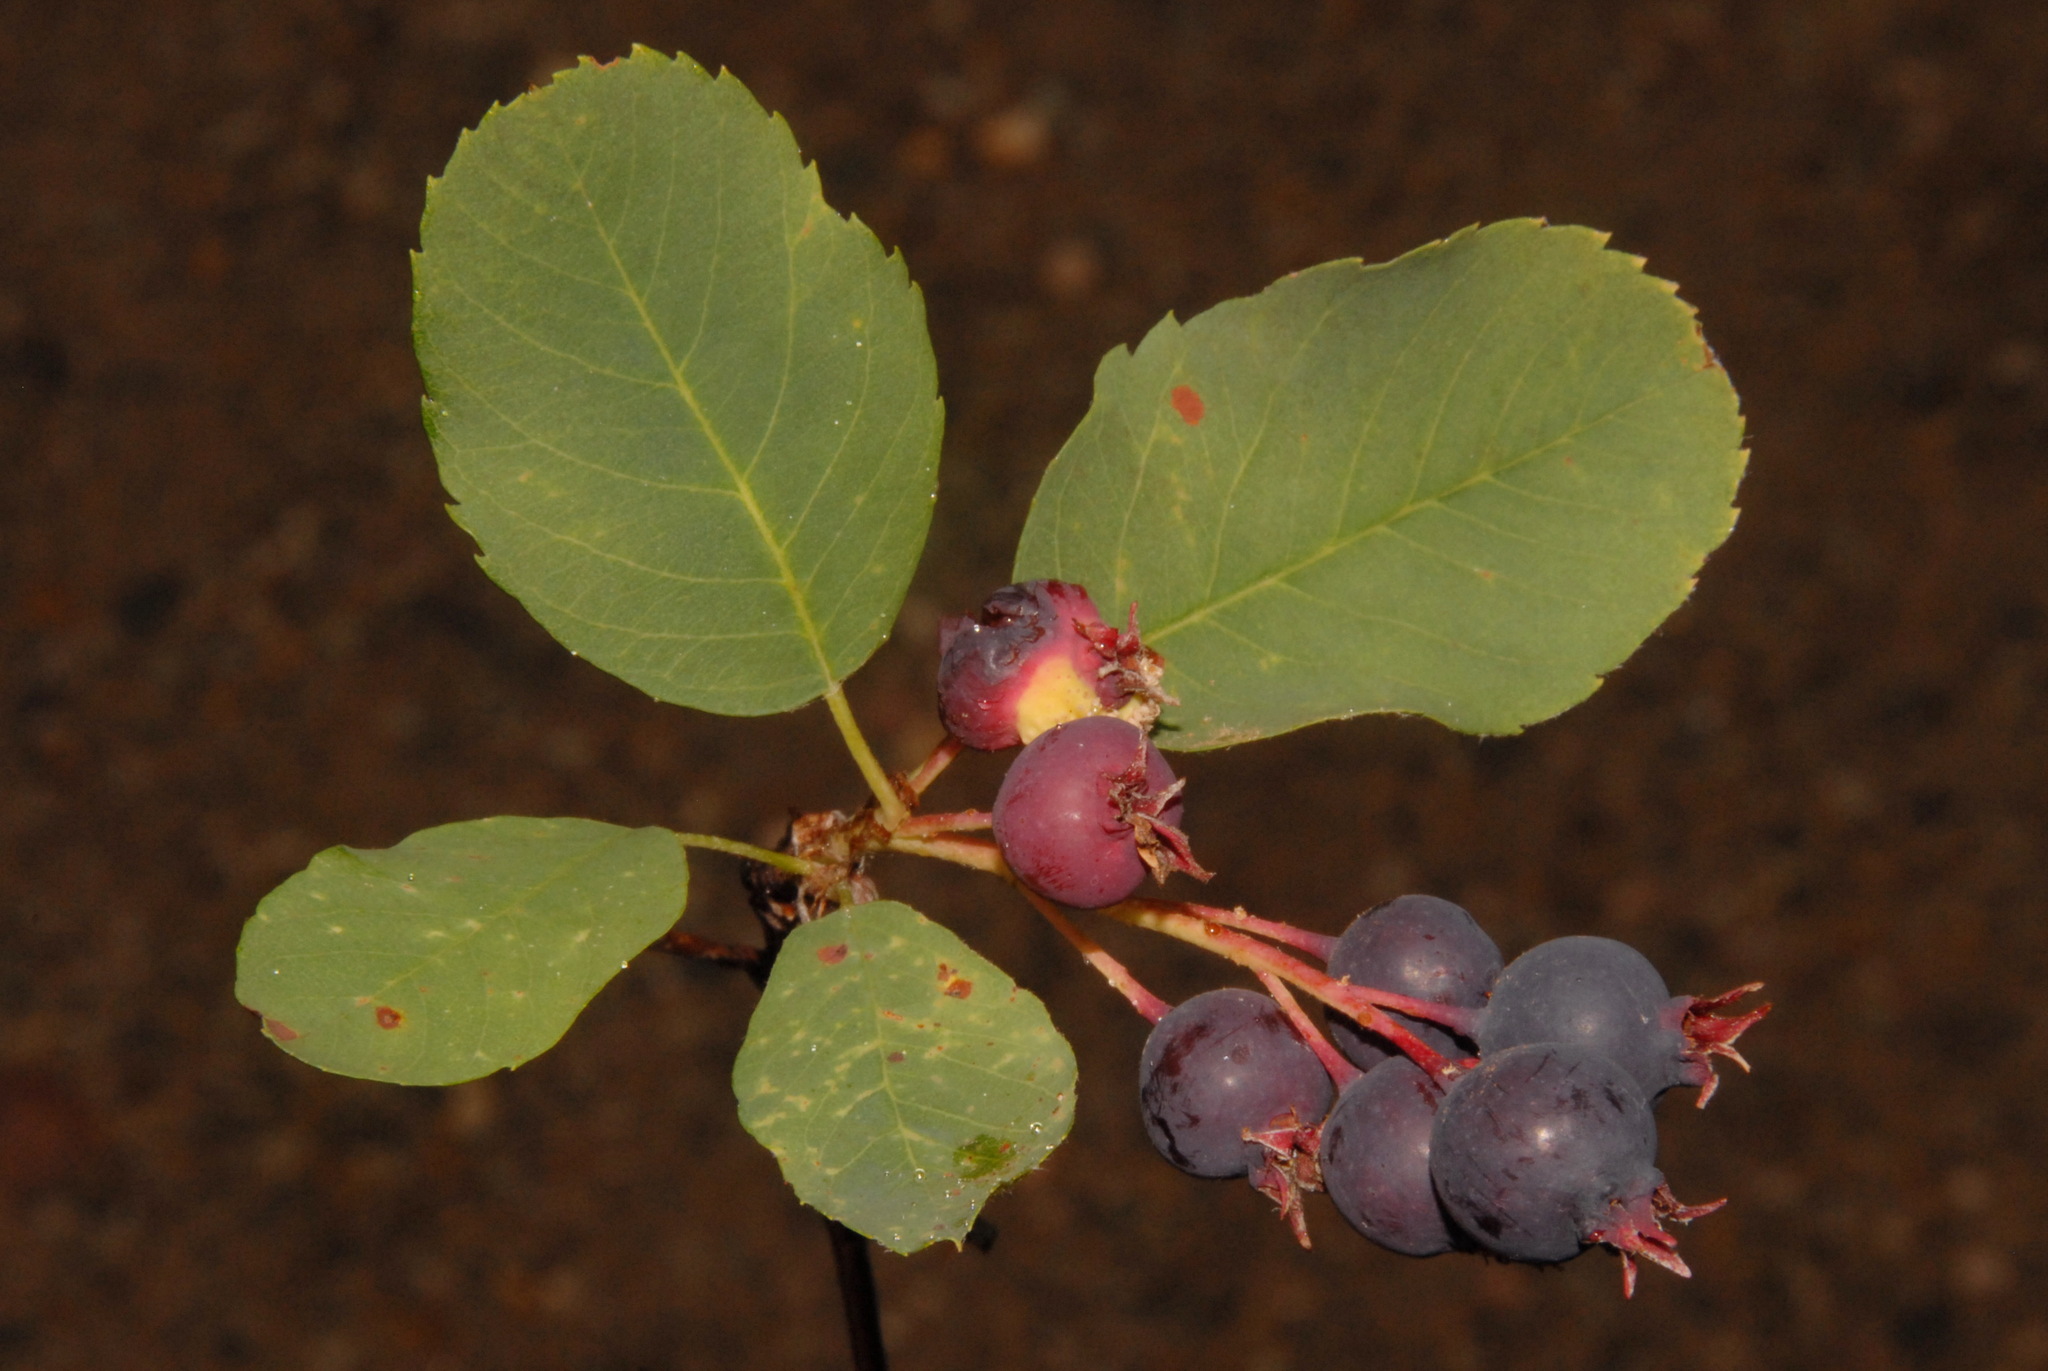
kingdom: Plantae
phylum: Tracheophyta
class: Magnoliopsida
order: Rosales
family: Rosaceae
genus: Amelanchier
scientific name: Amelanchier alnifolia
